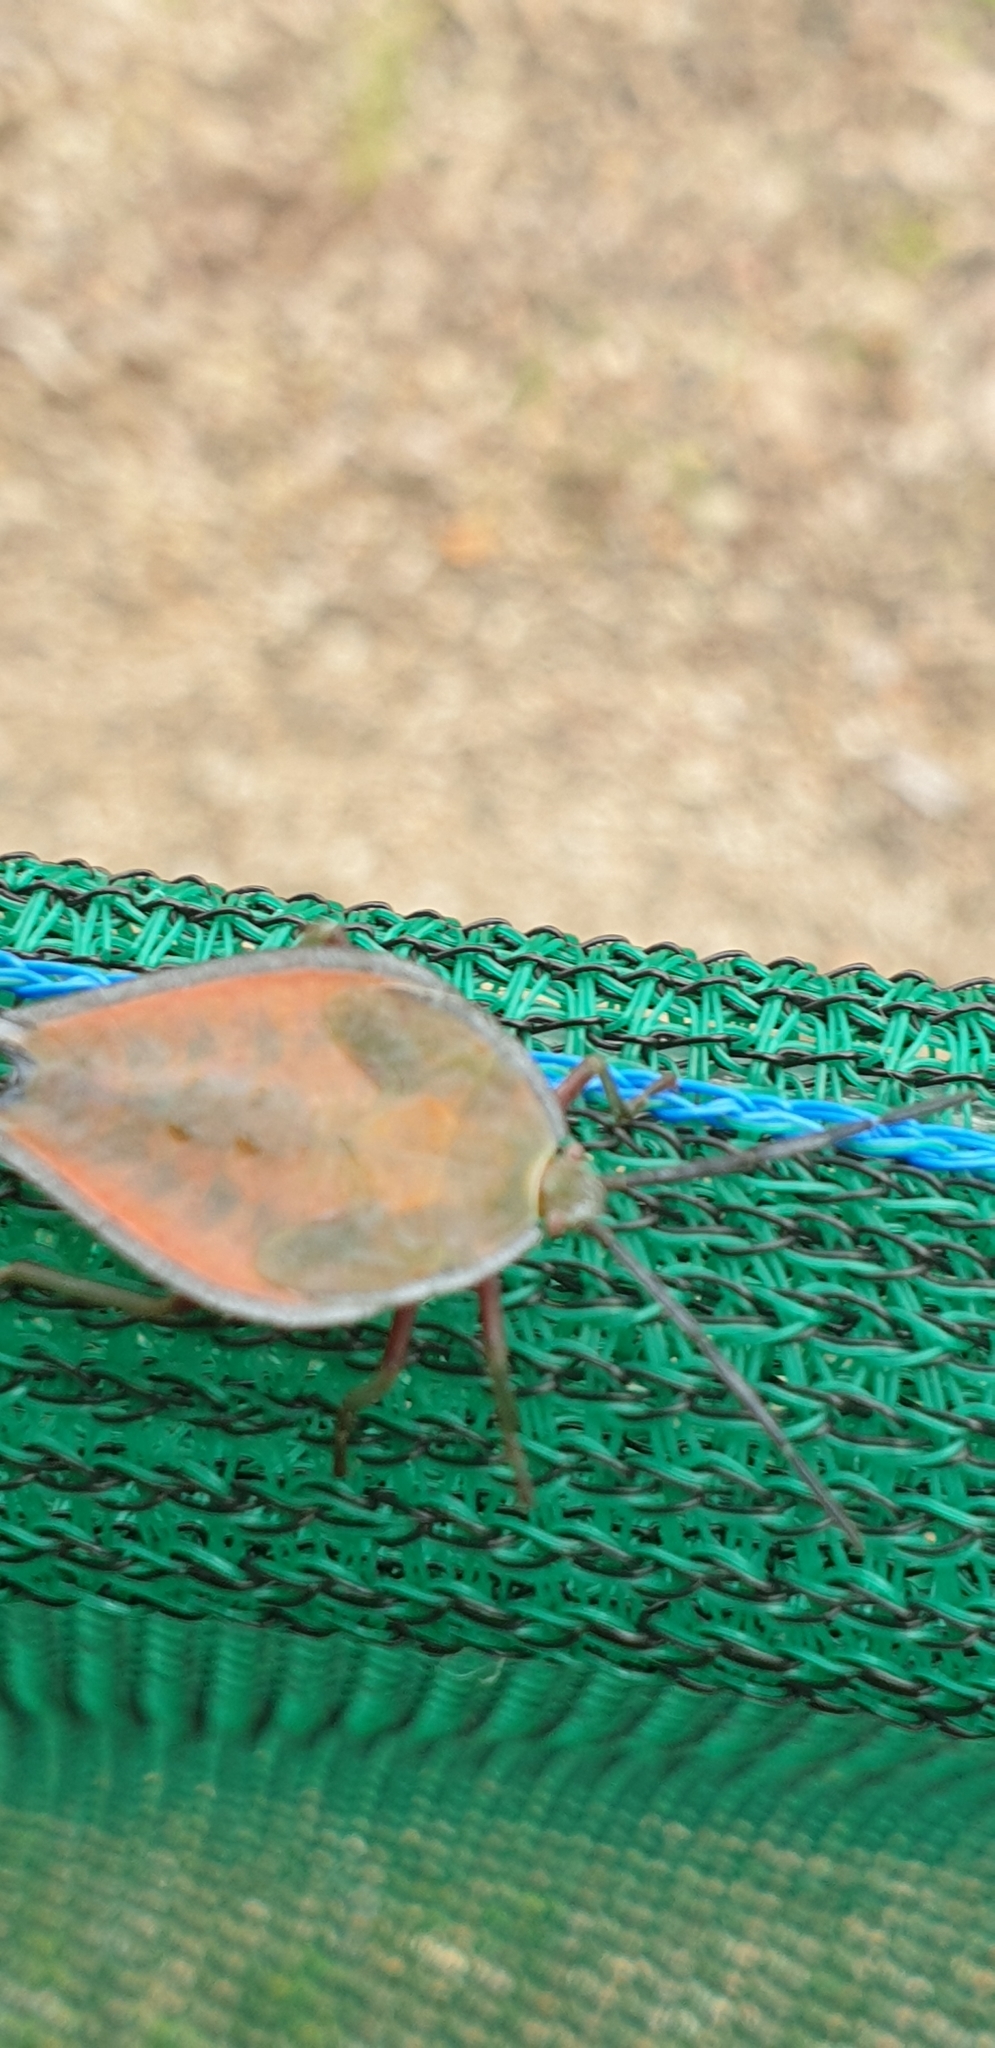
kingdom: Animalia
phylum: Arthropoda
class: Insecta
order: Hemiptera
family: Tessaratomidae
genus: Lyramorpha
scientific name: Lyramorpha rosea
